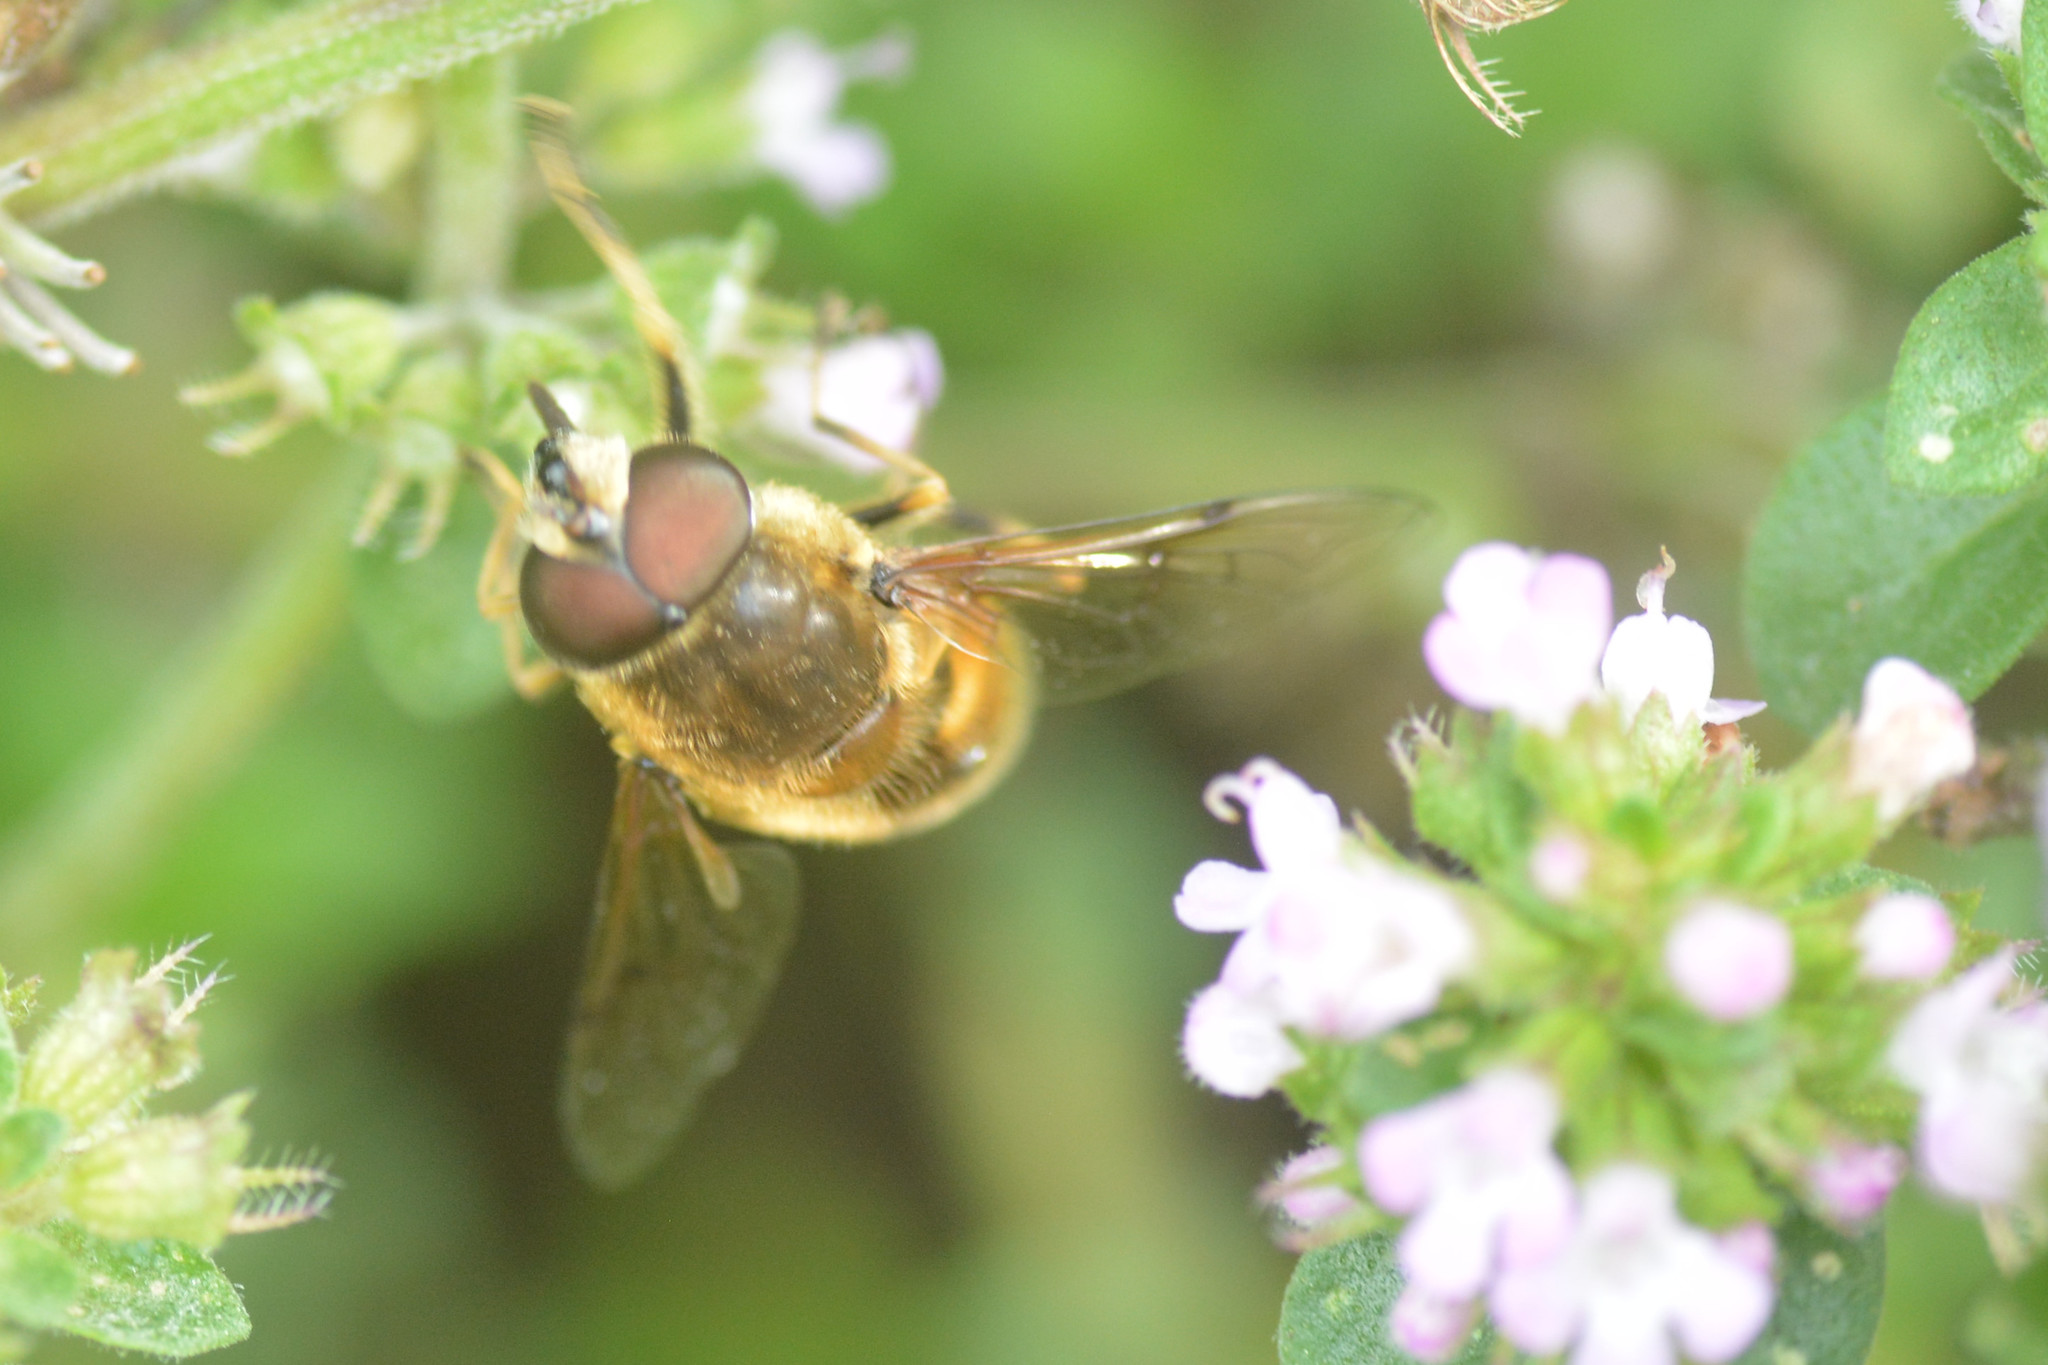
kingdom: Animalia
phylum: Arthropoda
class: Insecta
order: Diptera
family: Syrphidae
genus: Cheilosia
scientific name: Cheilosia morio
